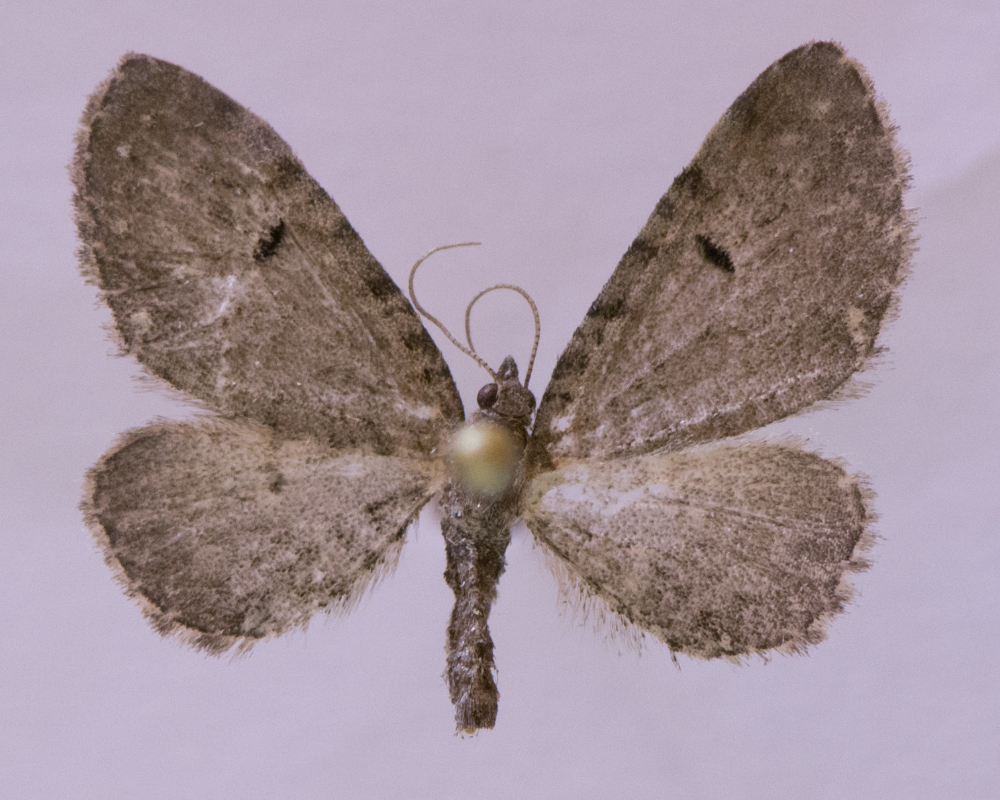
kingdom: Animalia
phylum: Arthropoda
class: Insecta
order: Lepidoptera
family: Geometridae
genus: Eupithecia
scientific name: Eupithecia assimilata
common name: Currant pug
